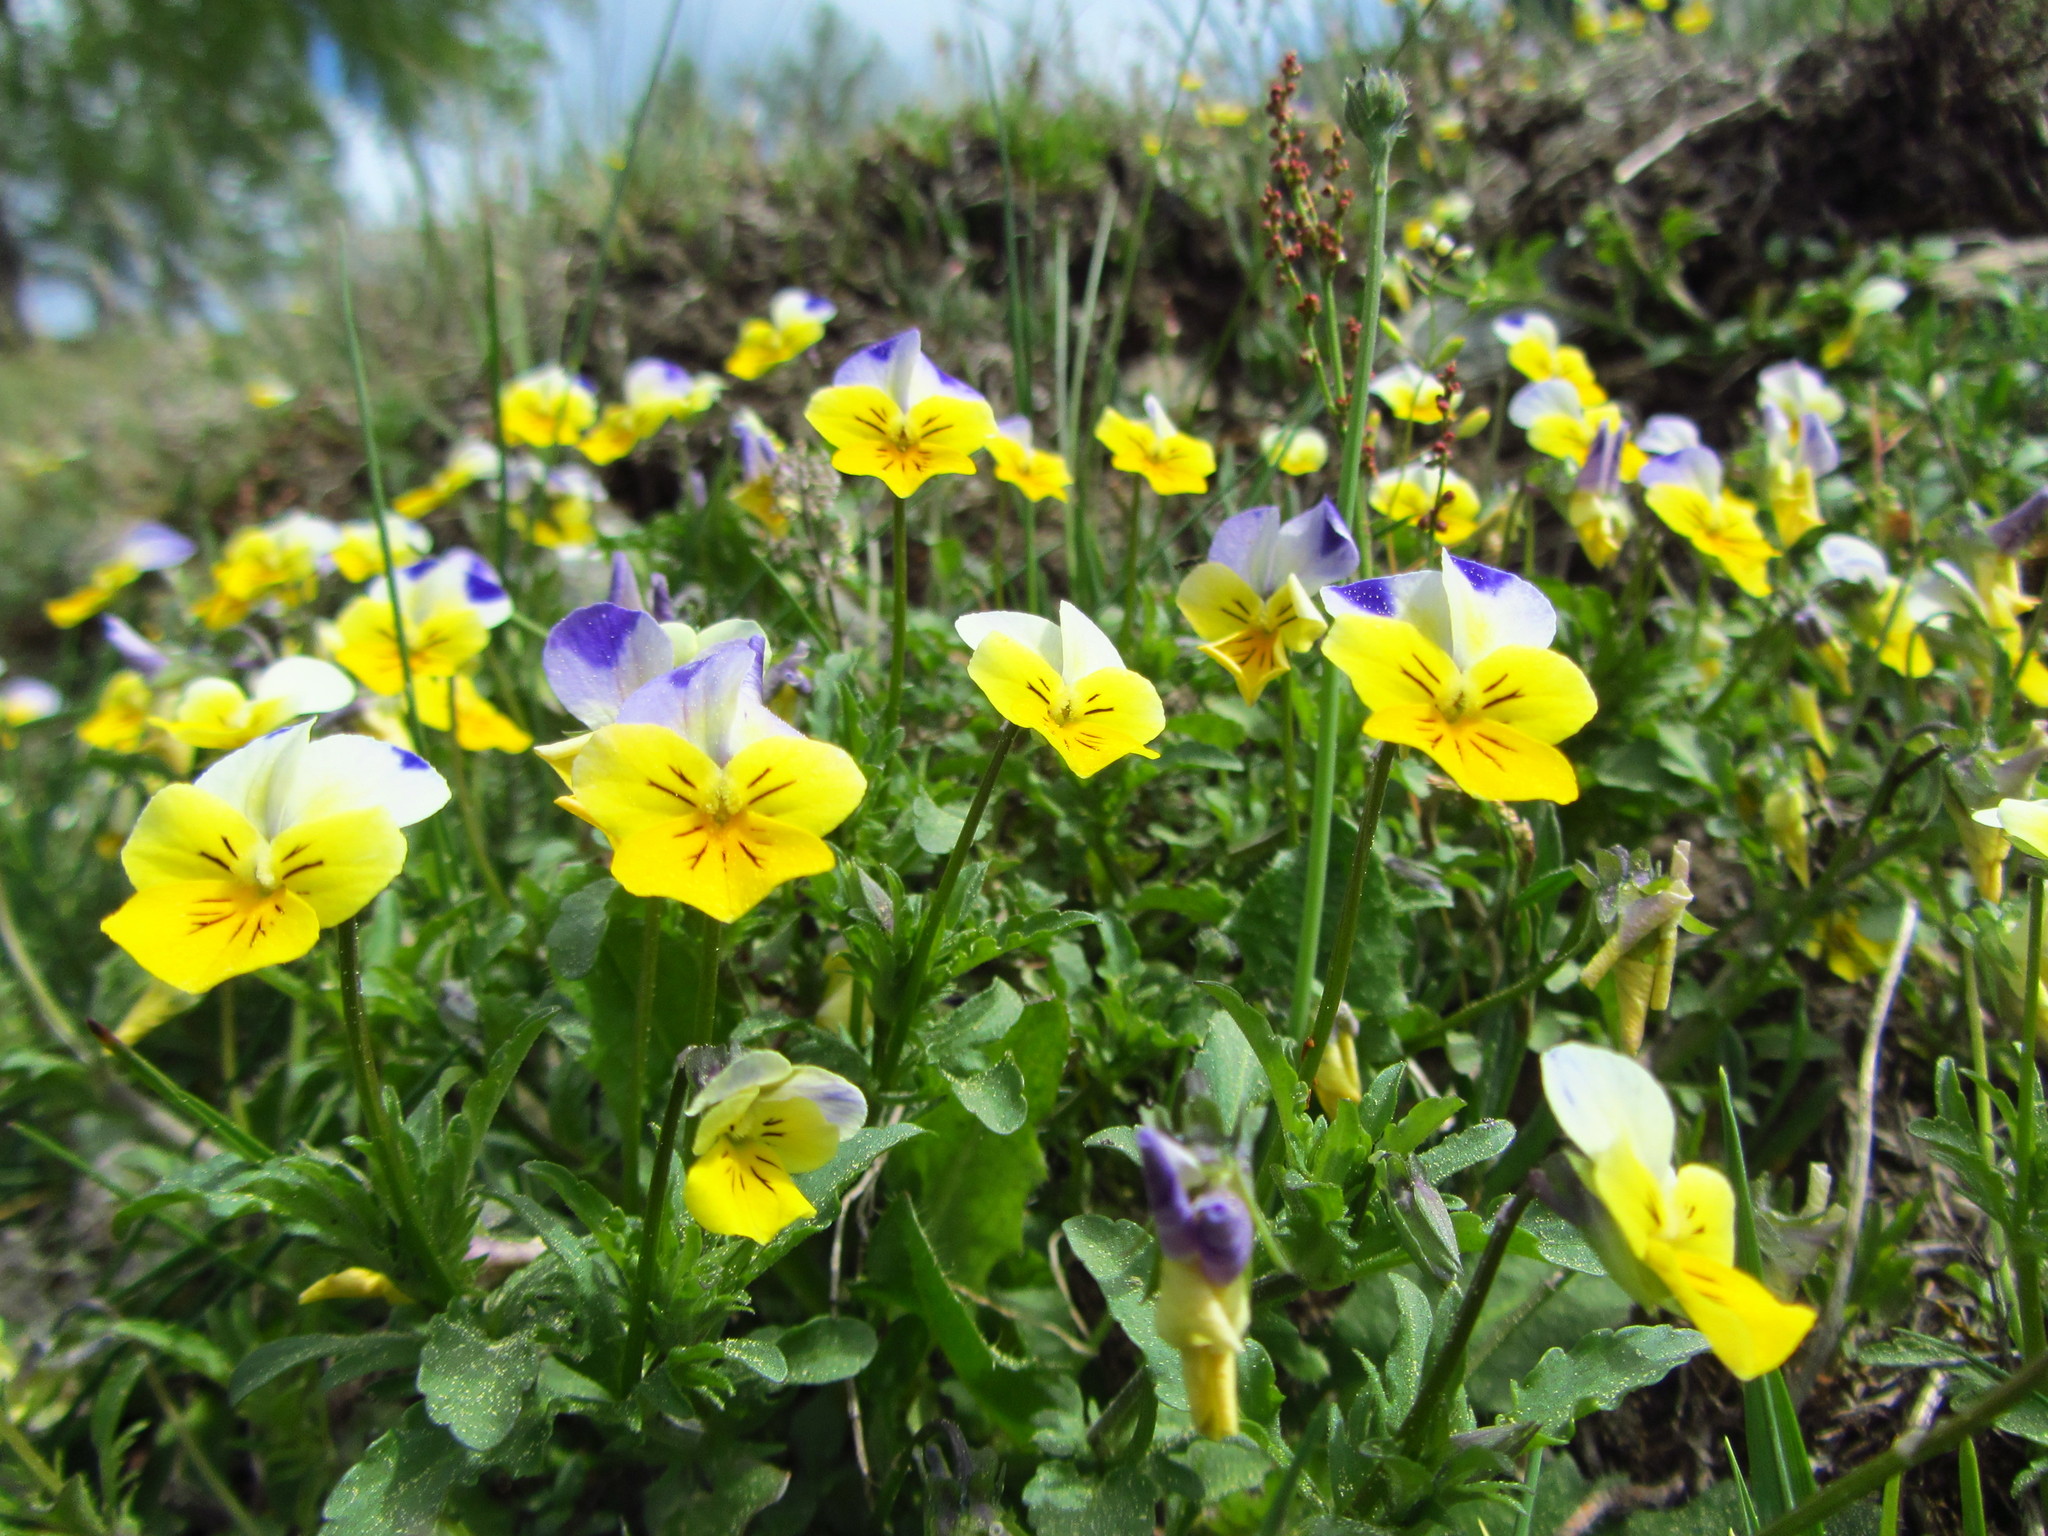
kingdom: Plantae
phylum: Tracheophyta
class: Magnoliopsida
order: Malpighiales
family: Violaceae
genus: Viola
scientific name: Viola tricolor
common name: Pansy
